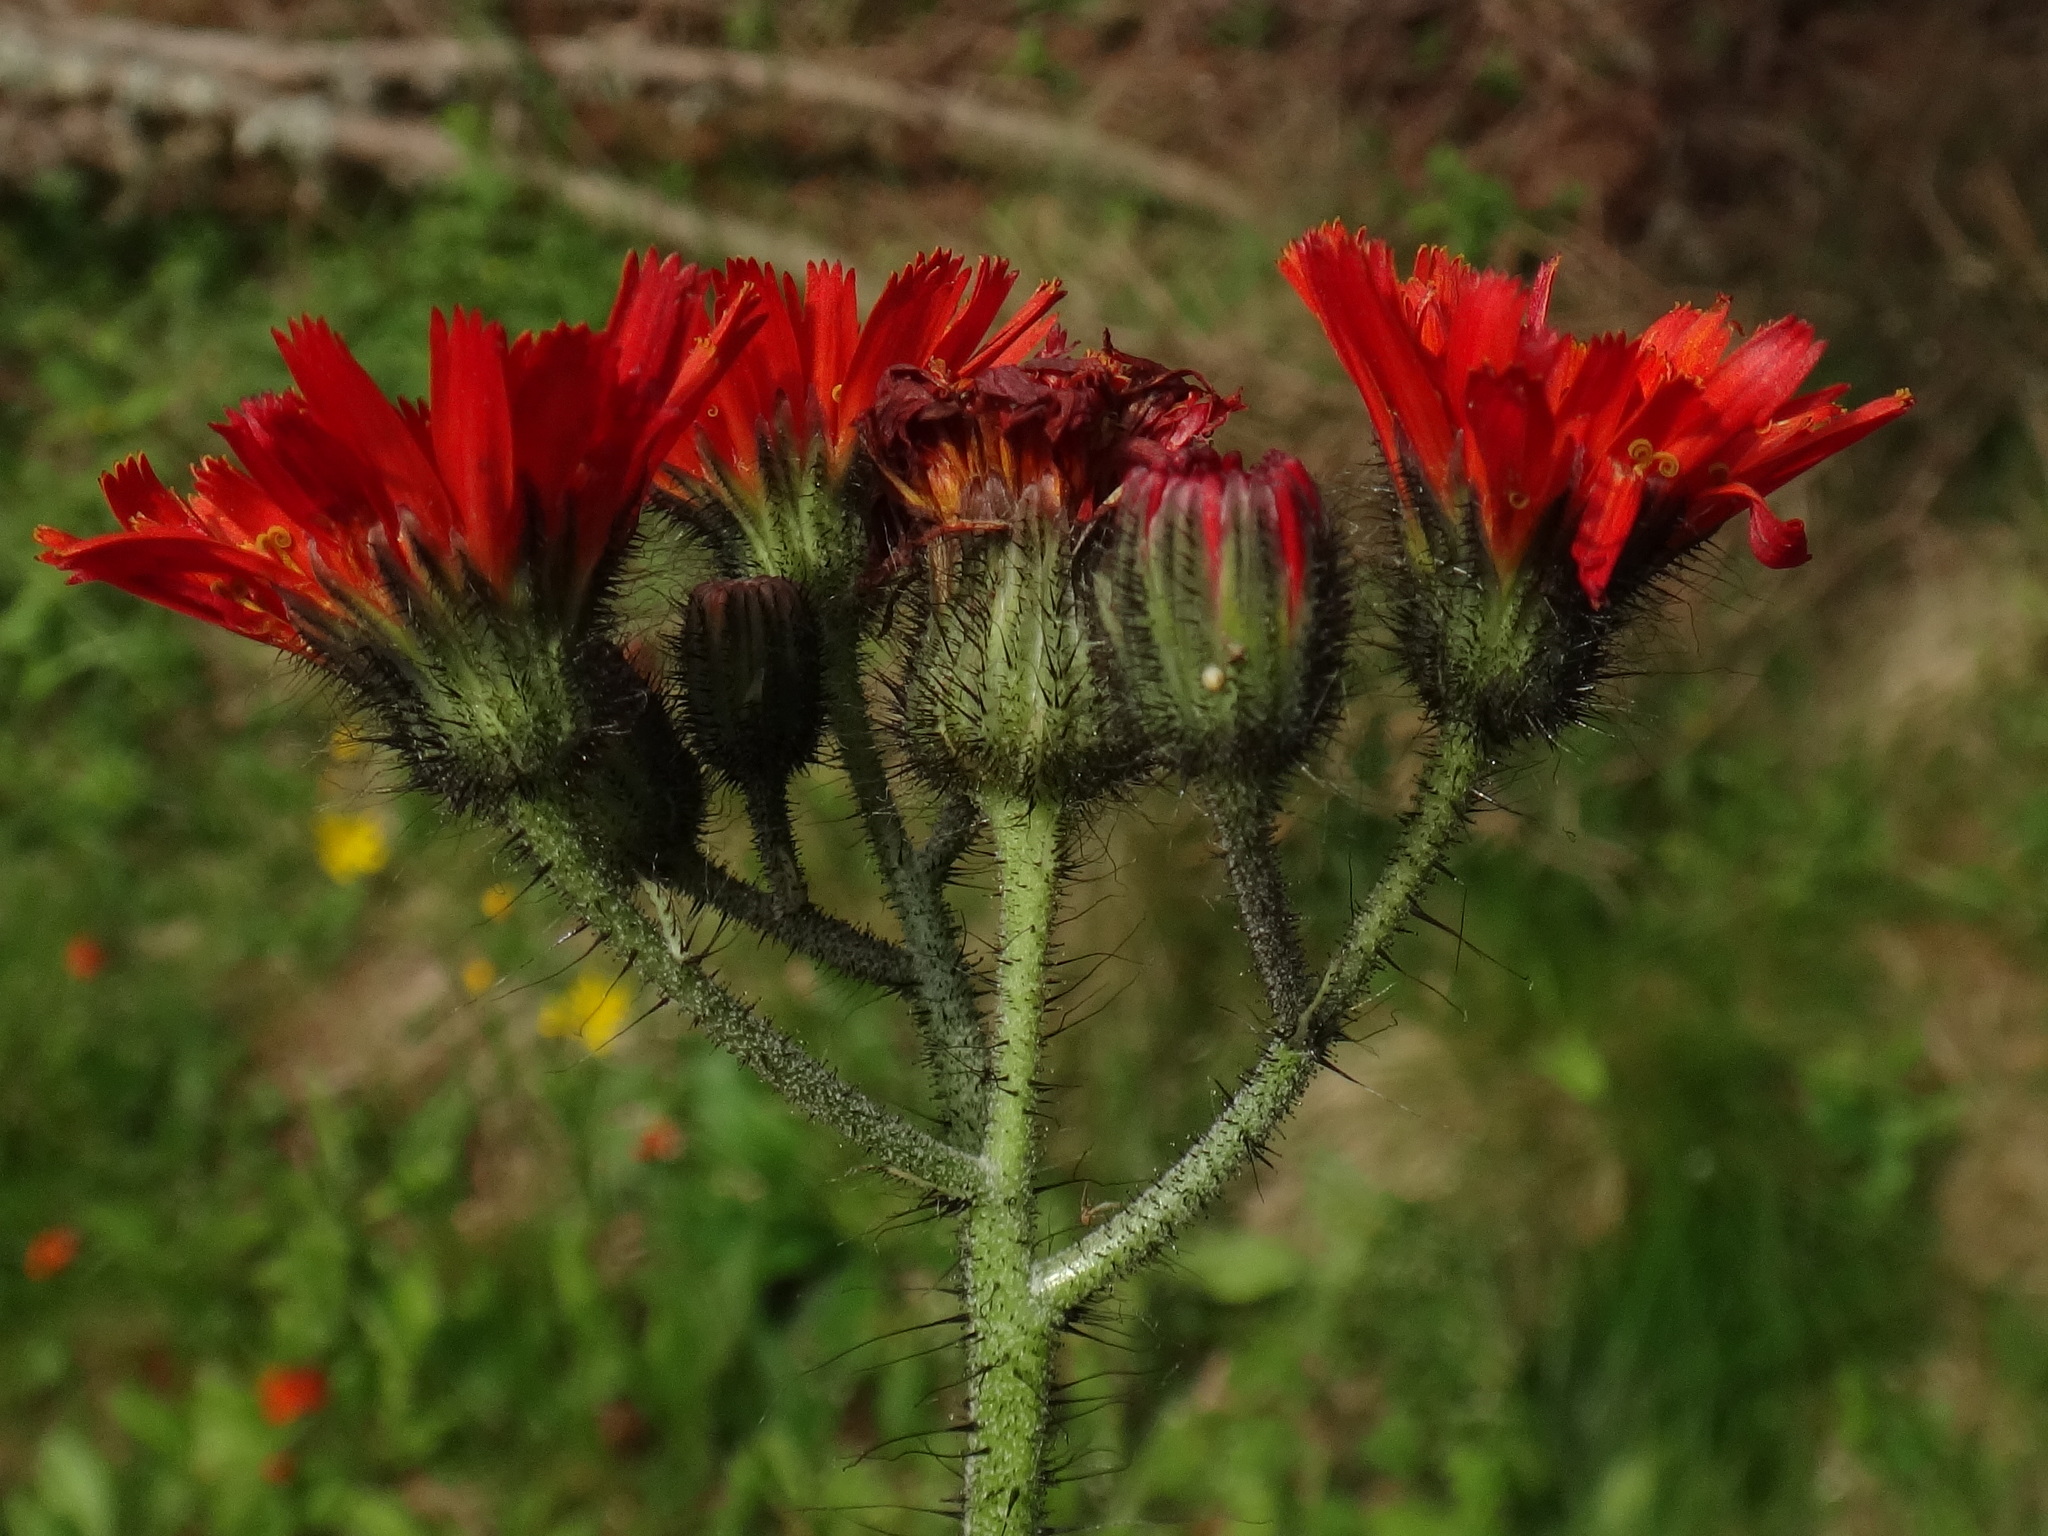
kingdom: Plantae
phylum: Tracheophyta
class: Magnoliopsida
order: Asterales
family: Asteraceae
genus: Pilosella
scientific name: Pilosella aurantiaca
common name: Fox-and-cubs
